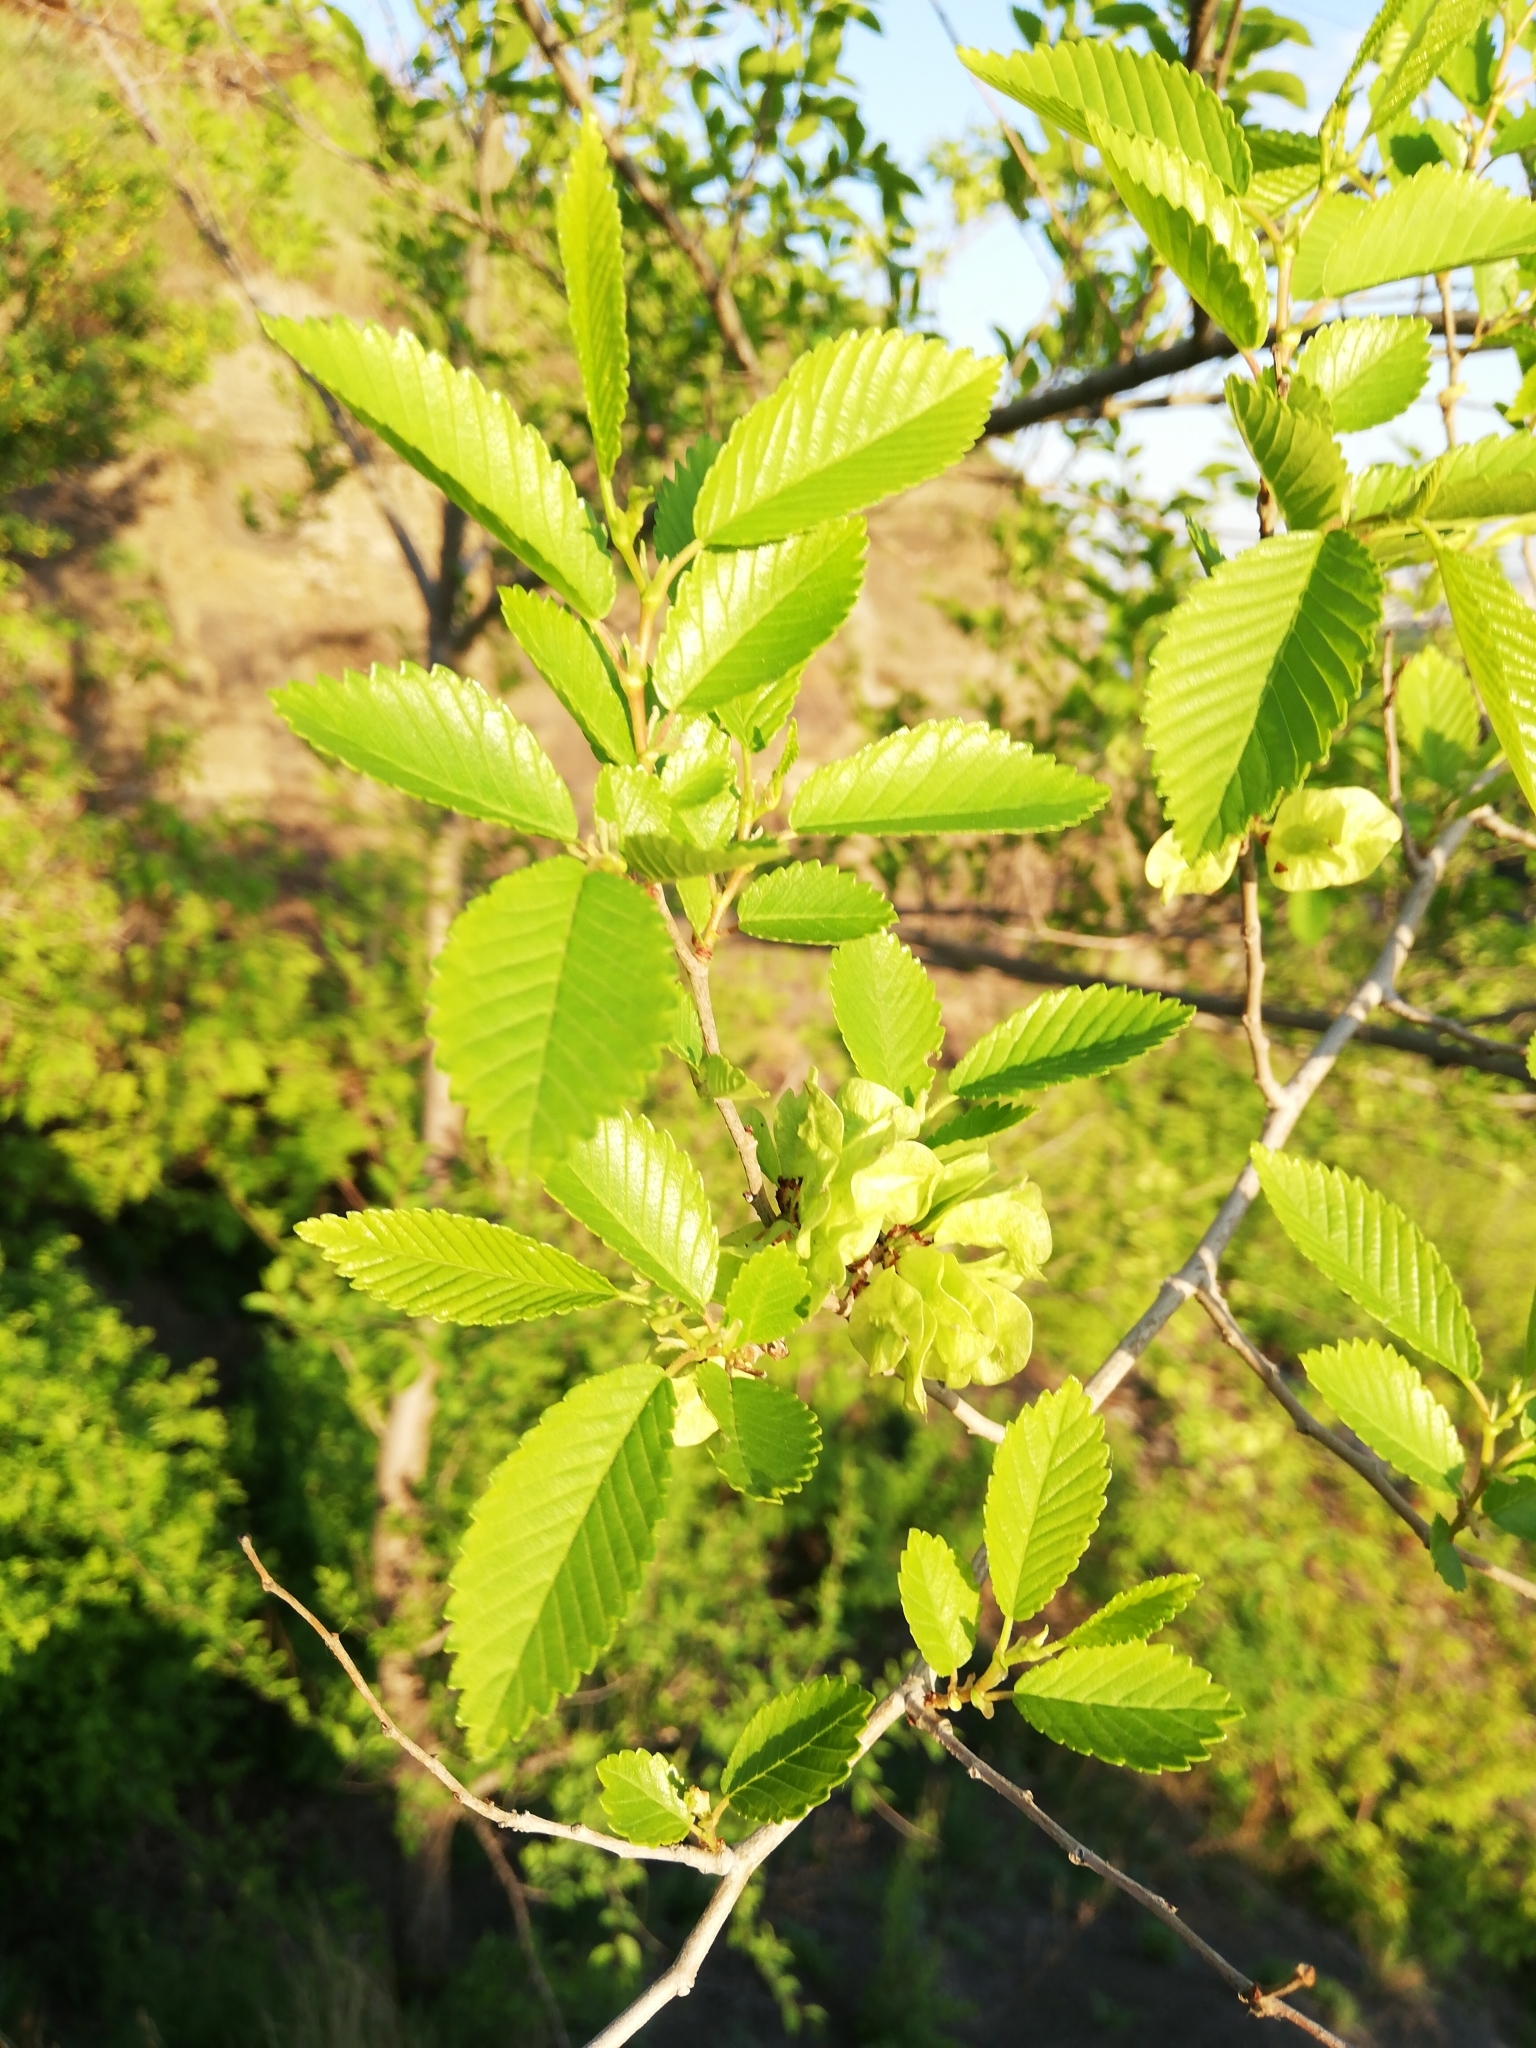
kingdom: Plantae
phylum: Tracheophyta
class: Magnoliopsida
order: Rosales
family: Ulmaceae
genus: Ulmus
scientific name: Ulmus pumila
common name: Siberian elm
